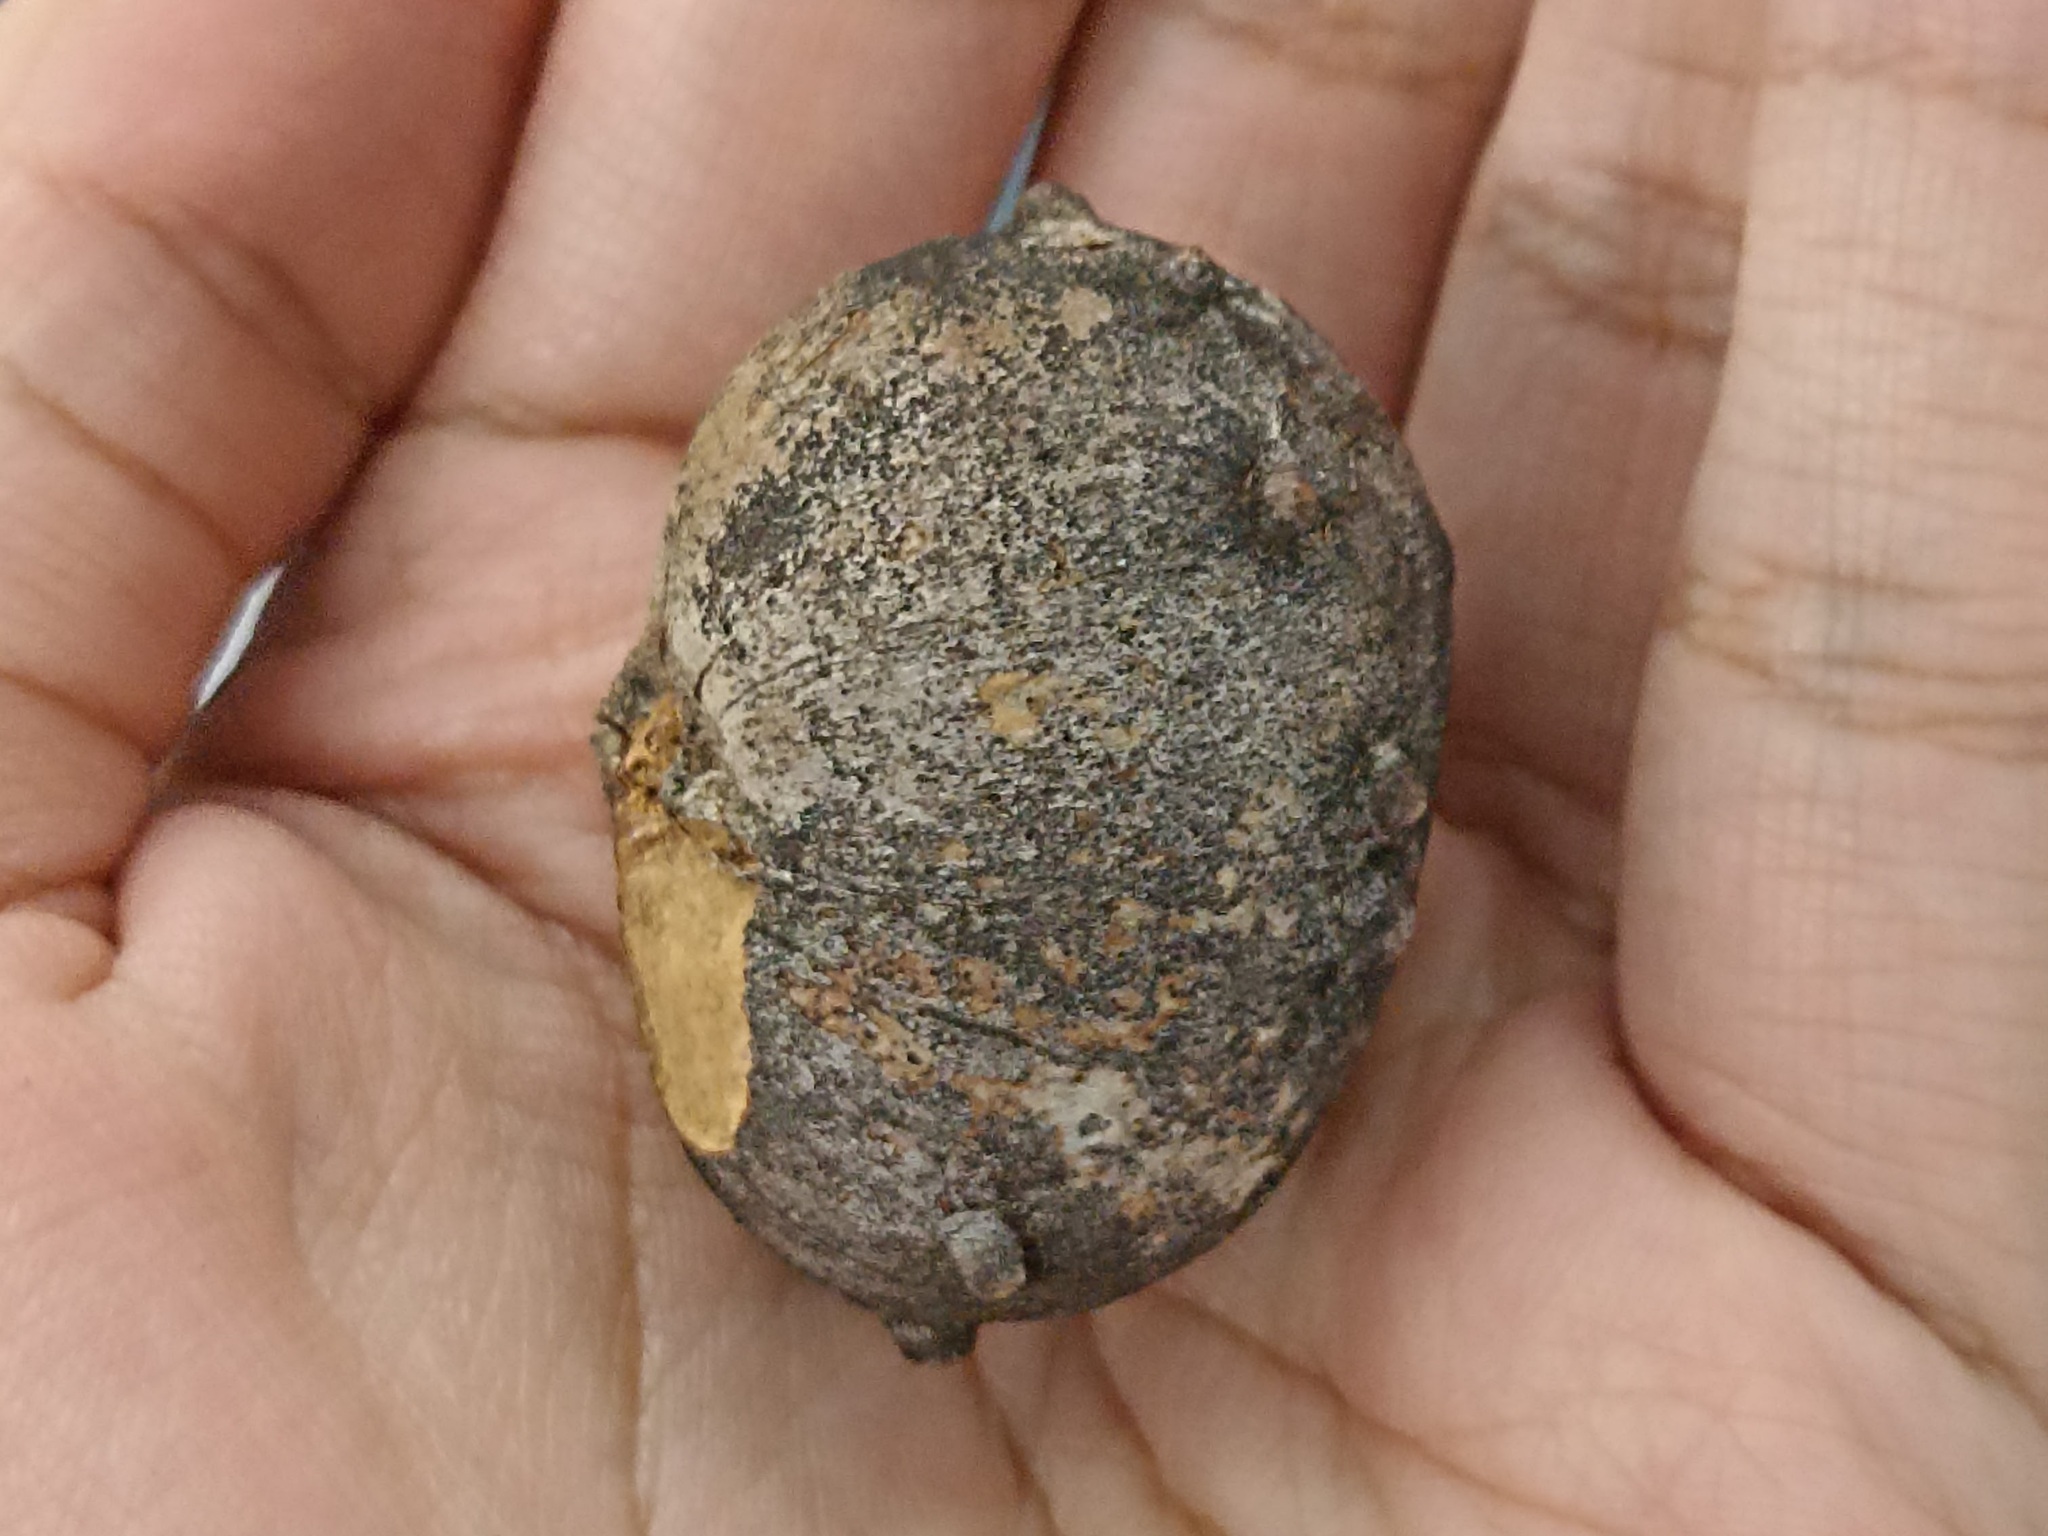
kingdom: Animalia
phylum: Arthropoda
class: Insecta
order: Hymenoptera
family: Cynipidae
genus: Andricus
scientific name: Andricus quercustozae
